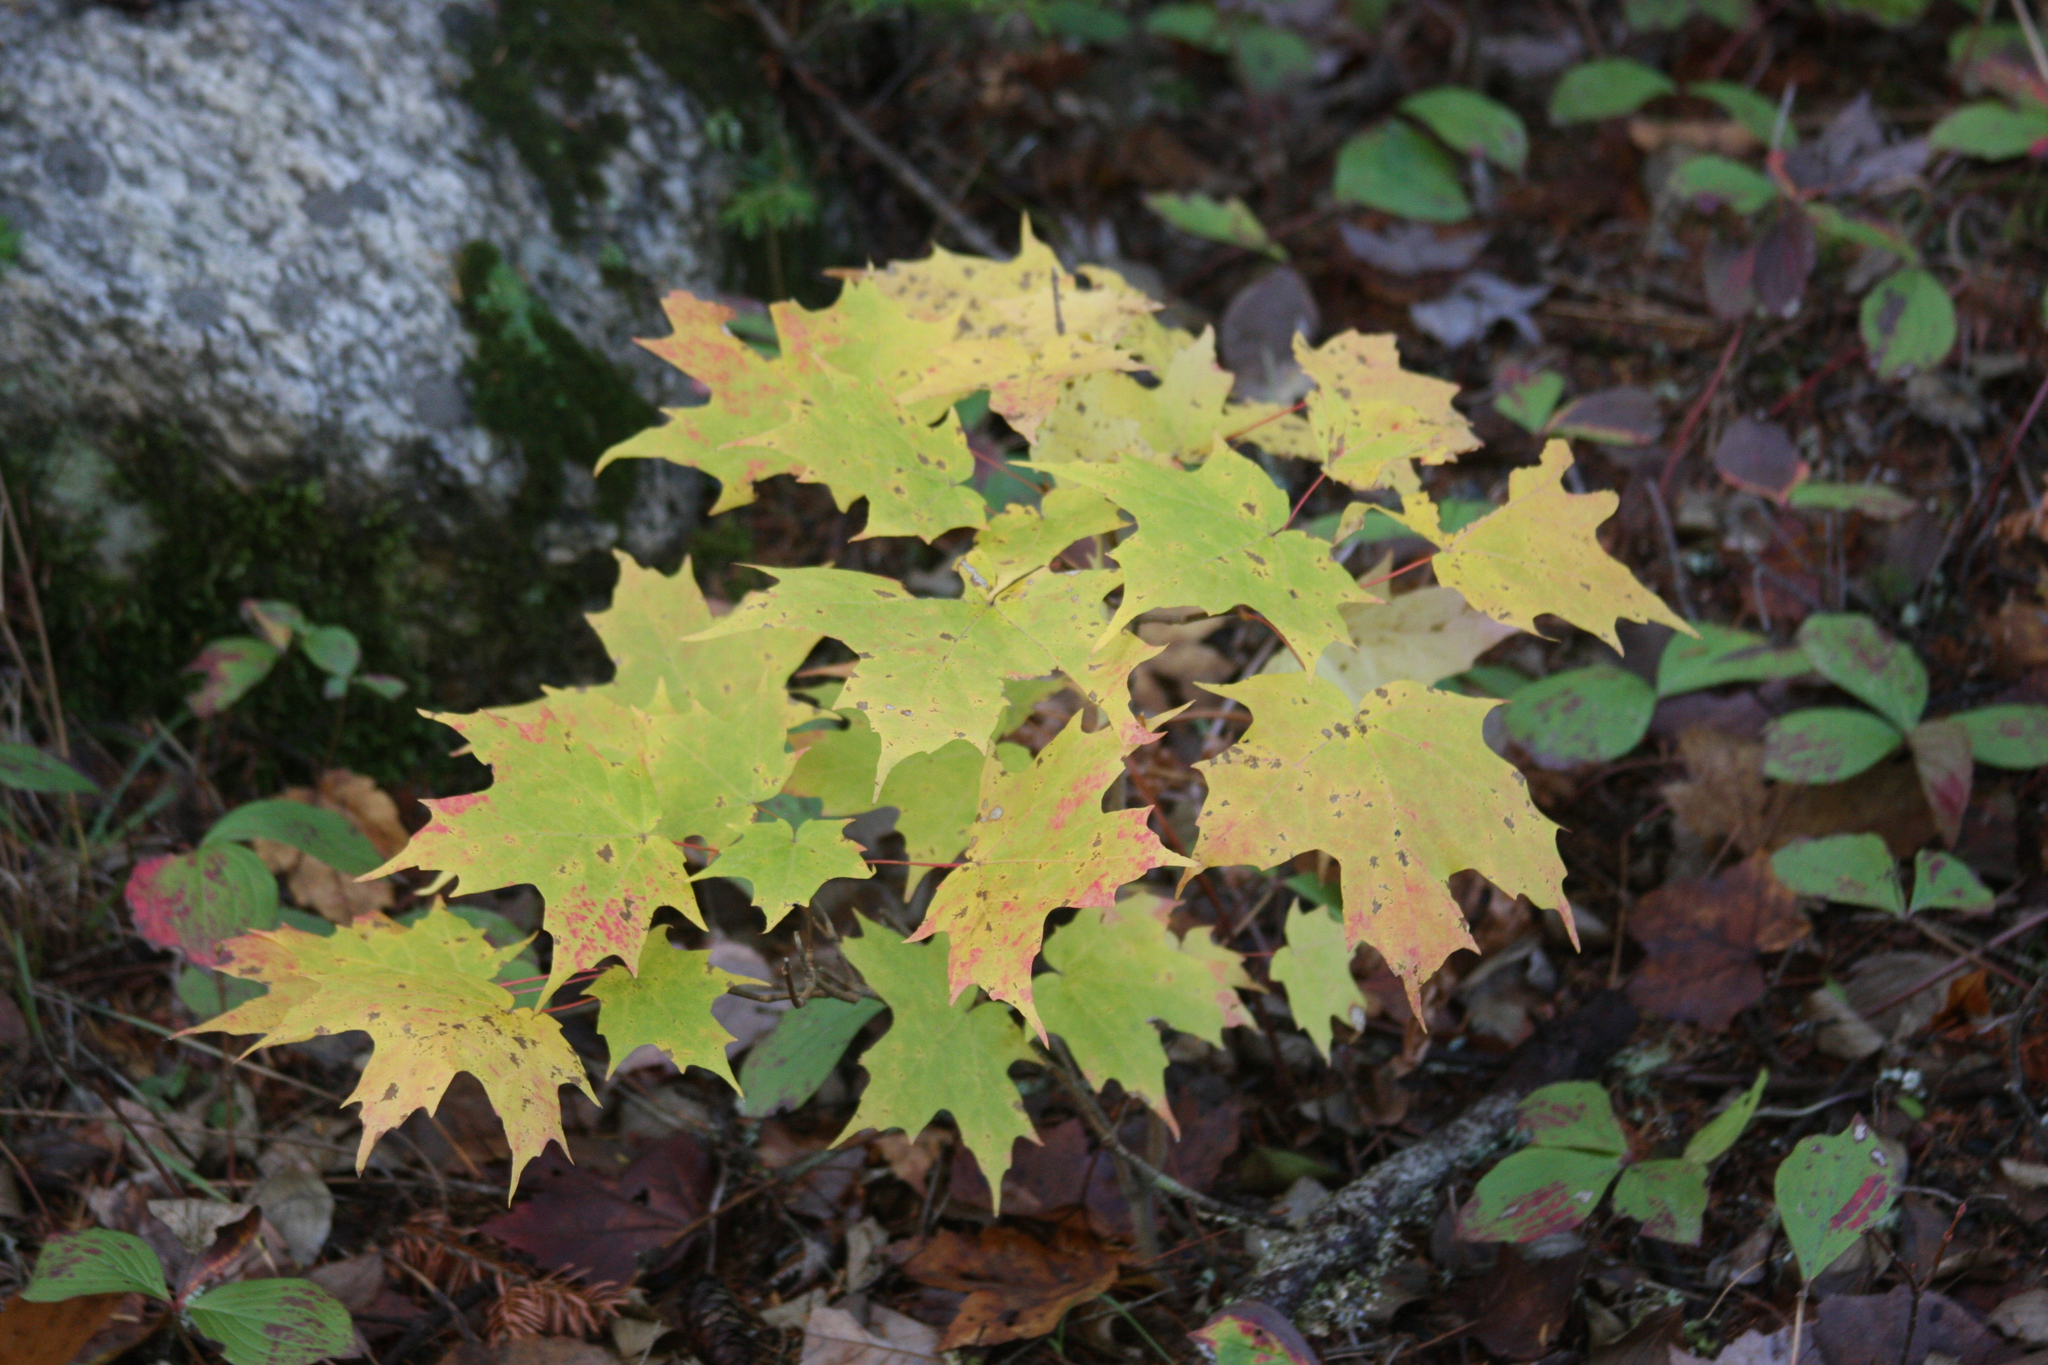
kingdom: Plantae
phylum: Tracheophyta
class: Magnoliopsida
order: Cornales
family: Cornaceae
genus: Cornus
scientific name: Cornus canadensis
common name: Creeping dogwood
